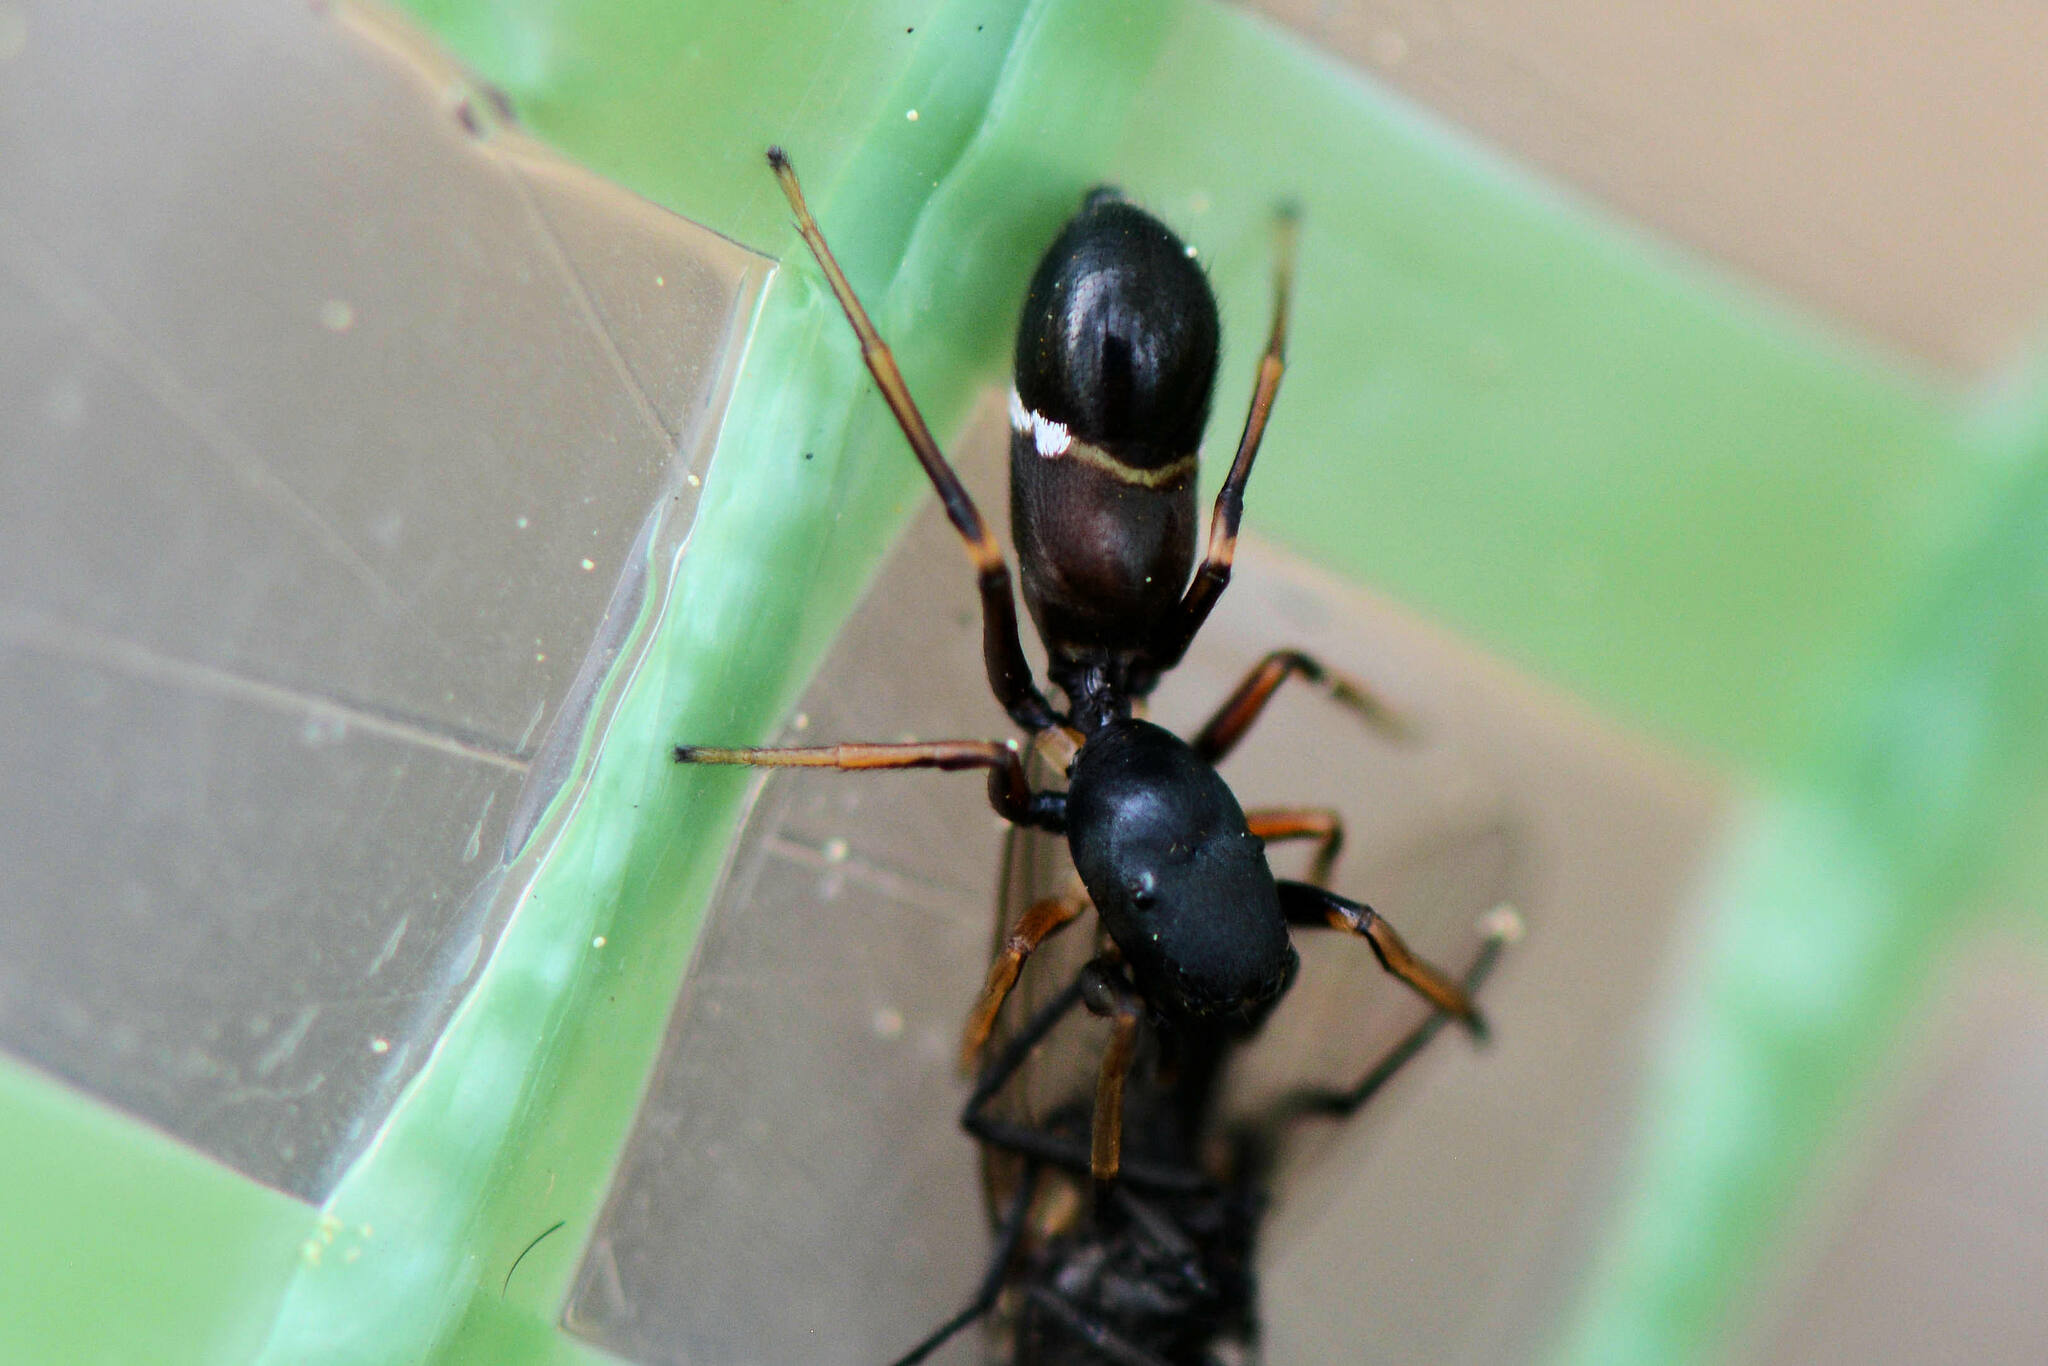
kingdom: Animalia
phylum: Arthropoda
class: Arachnida
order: Araneae
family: Salticidae
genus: Leptorchestes
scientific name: Leptorchestes berolinensis
